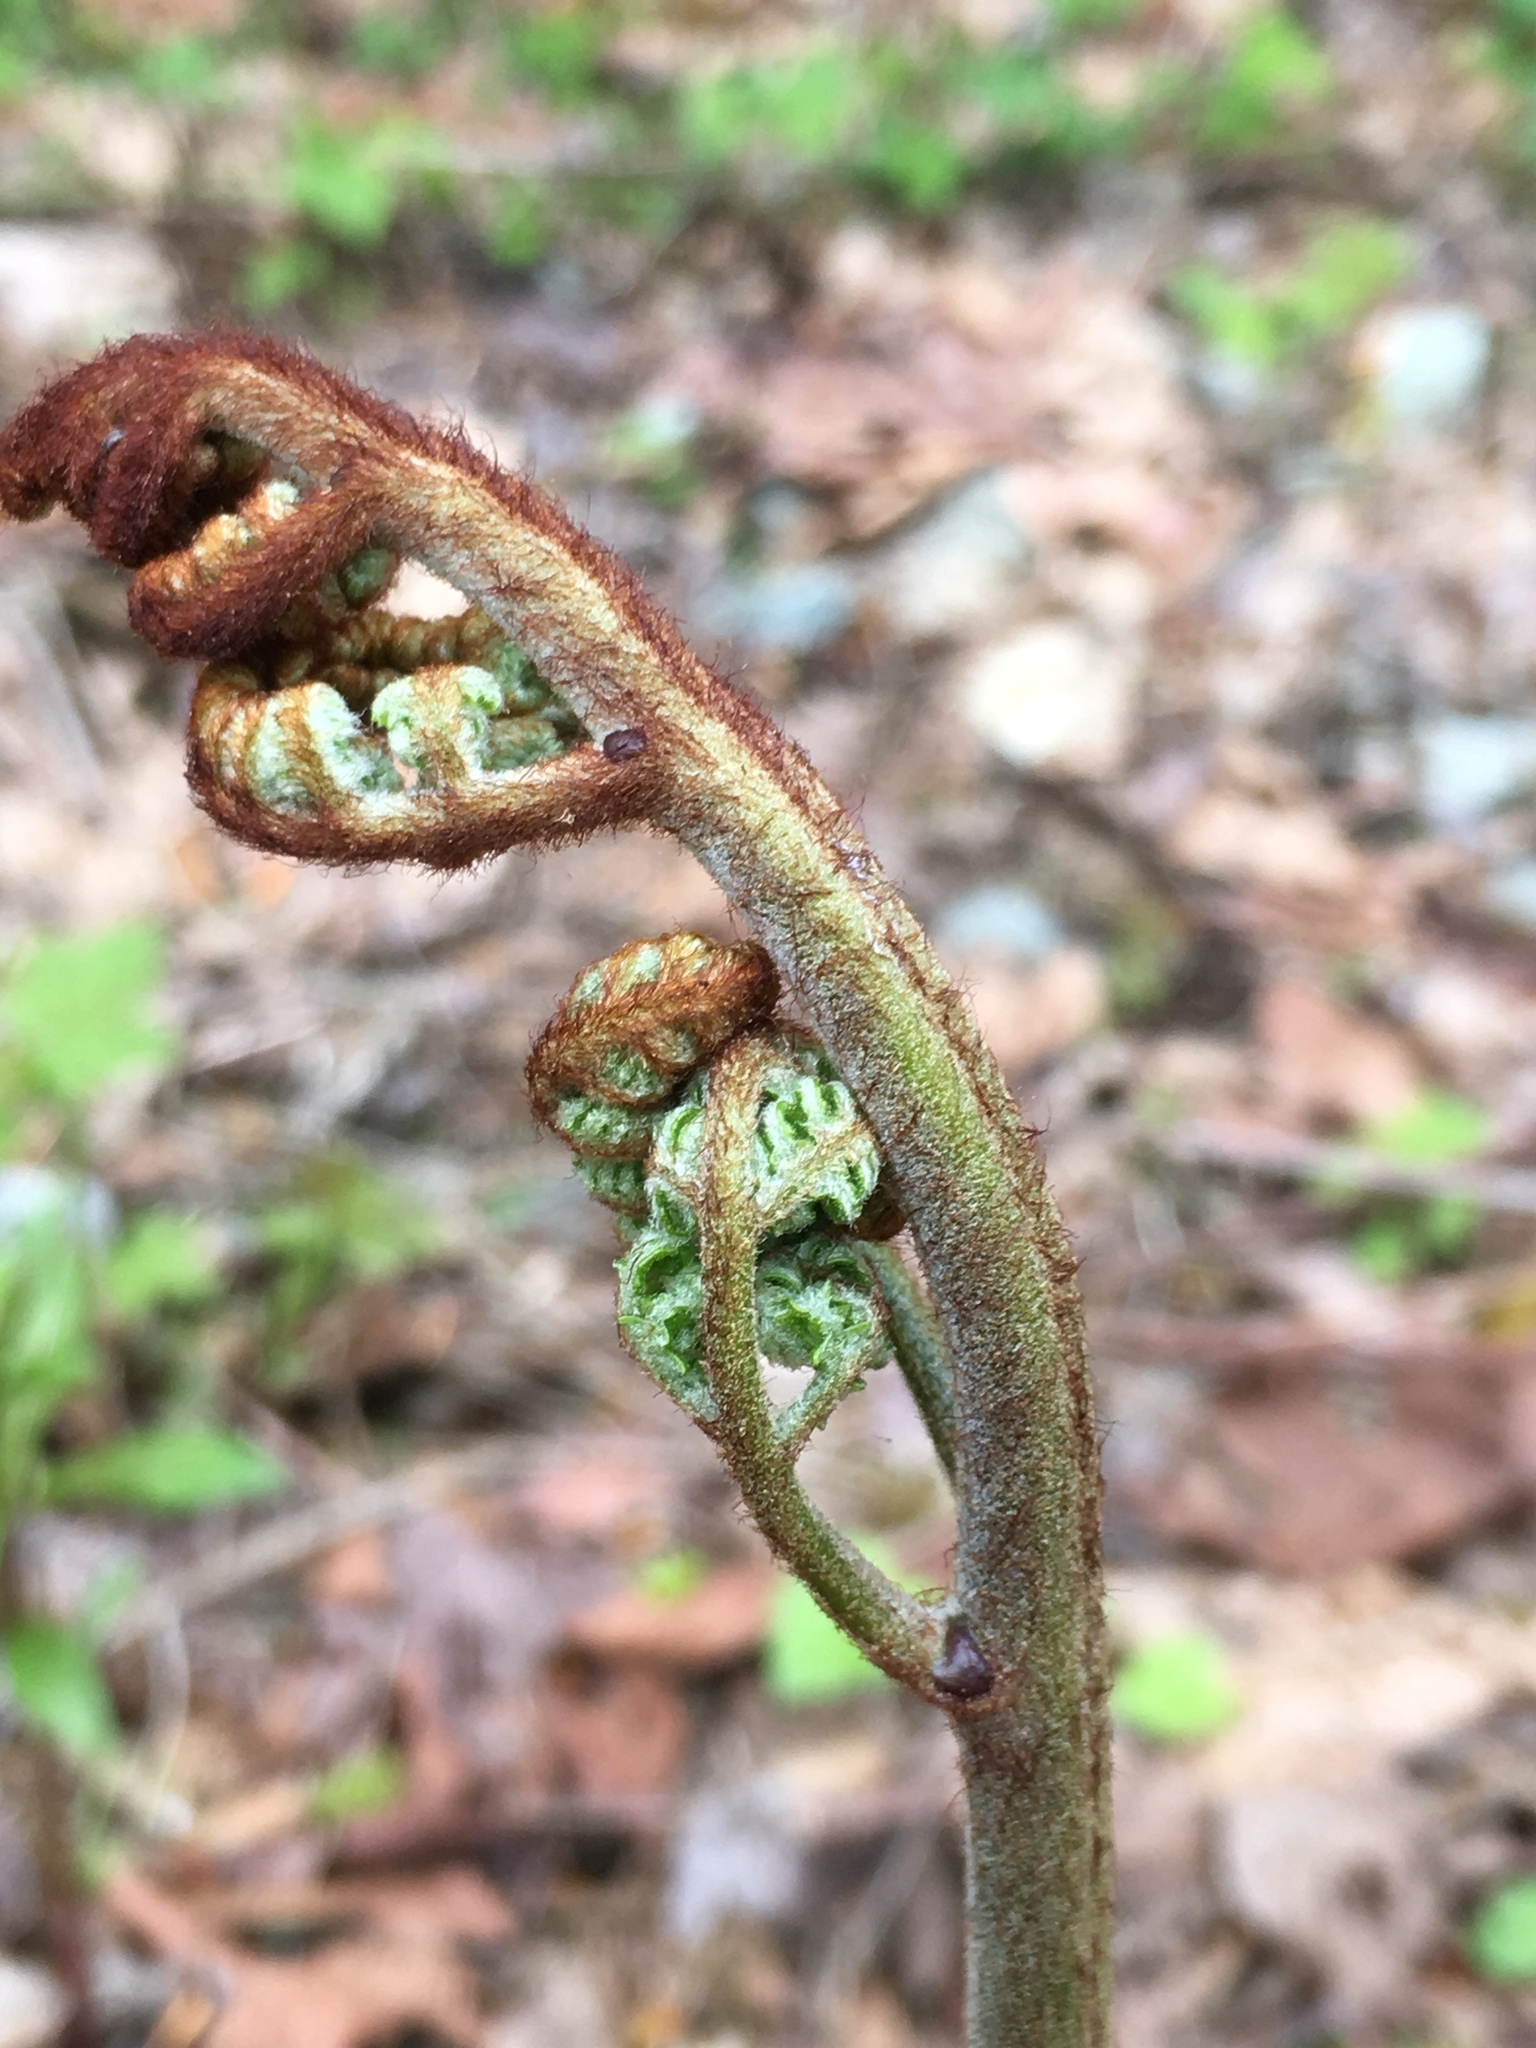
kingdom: Plantae
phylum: Tracheophyta
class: Polypodiopsida
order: Polypodiales
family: Dennstaedtiaceae
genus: Pteridium
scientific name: Pteridium aquilinum
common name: Bracken
